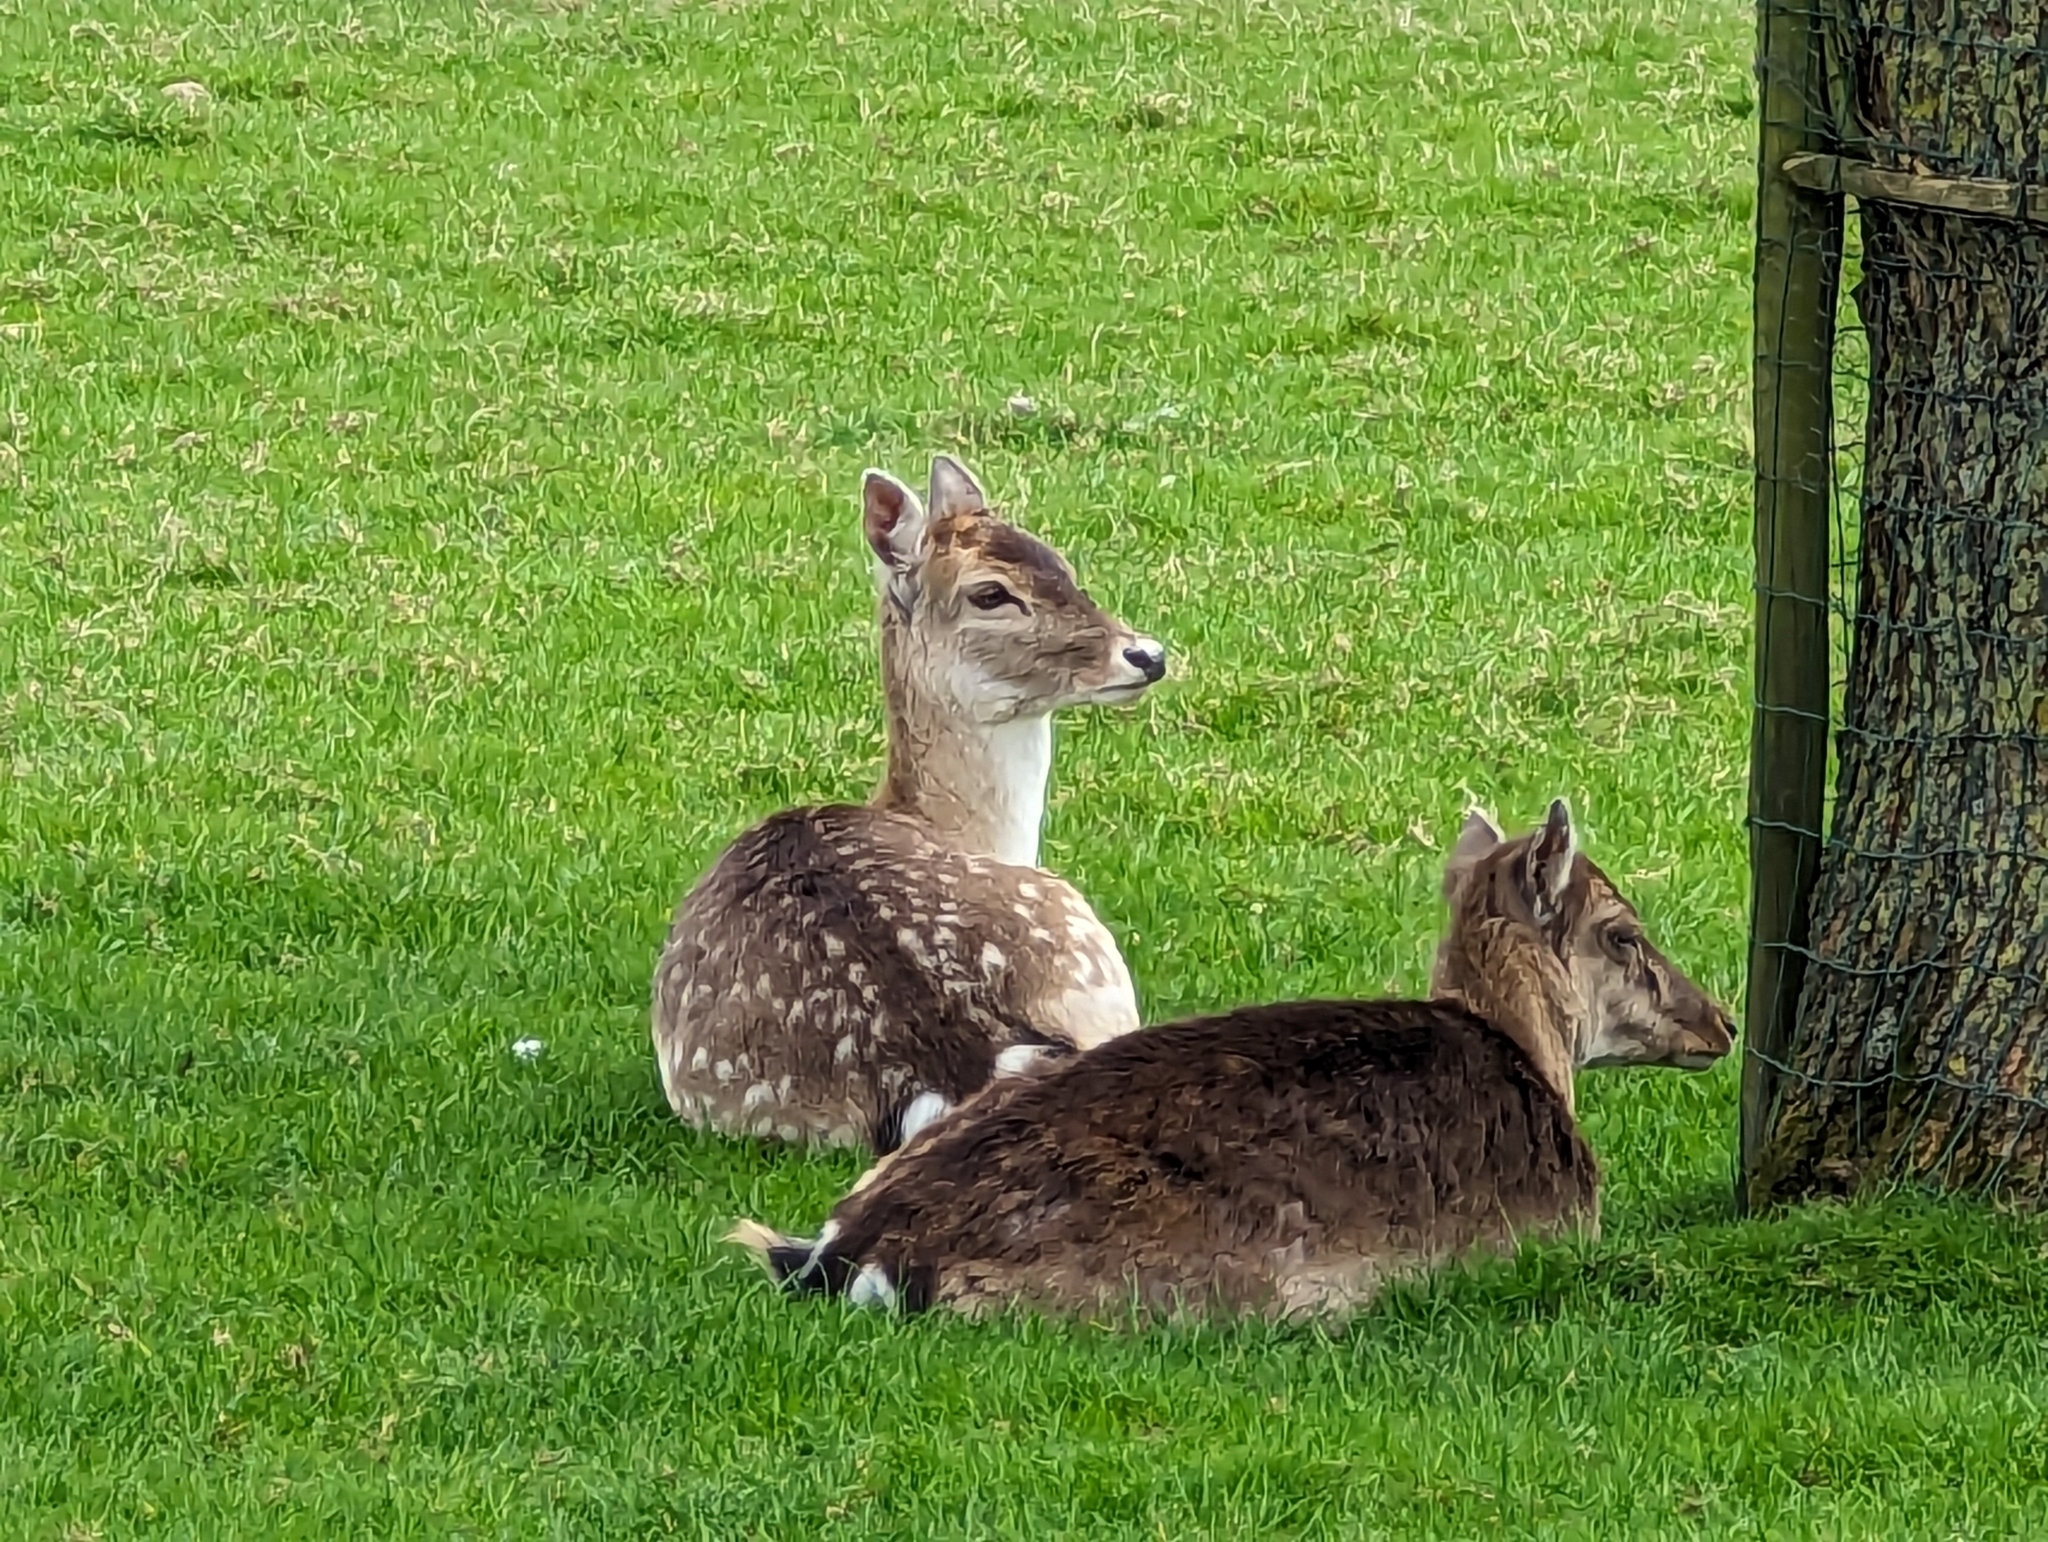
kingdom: Animalia
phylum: Chordata
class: Mammalia
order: Artiodactyla
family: Cervidae
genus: Dama
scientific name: Dama dama
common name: Fallow deer
